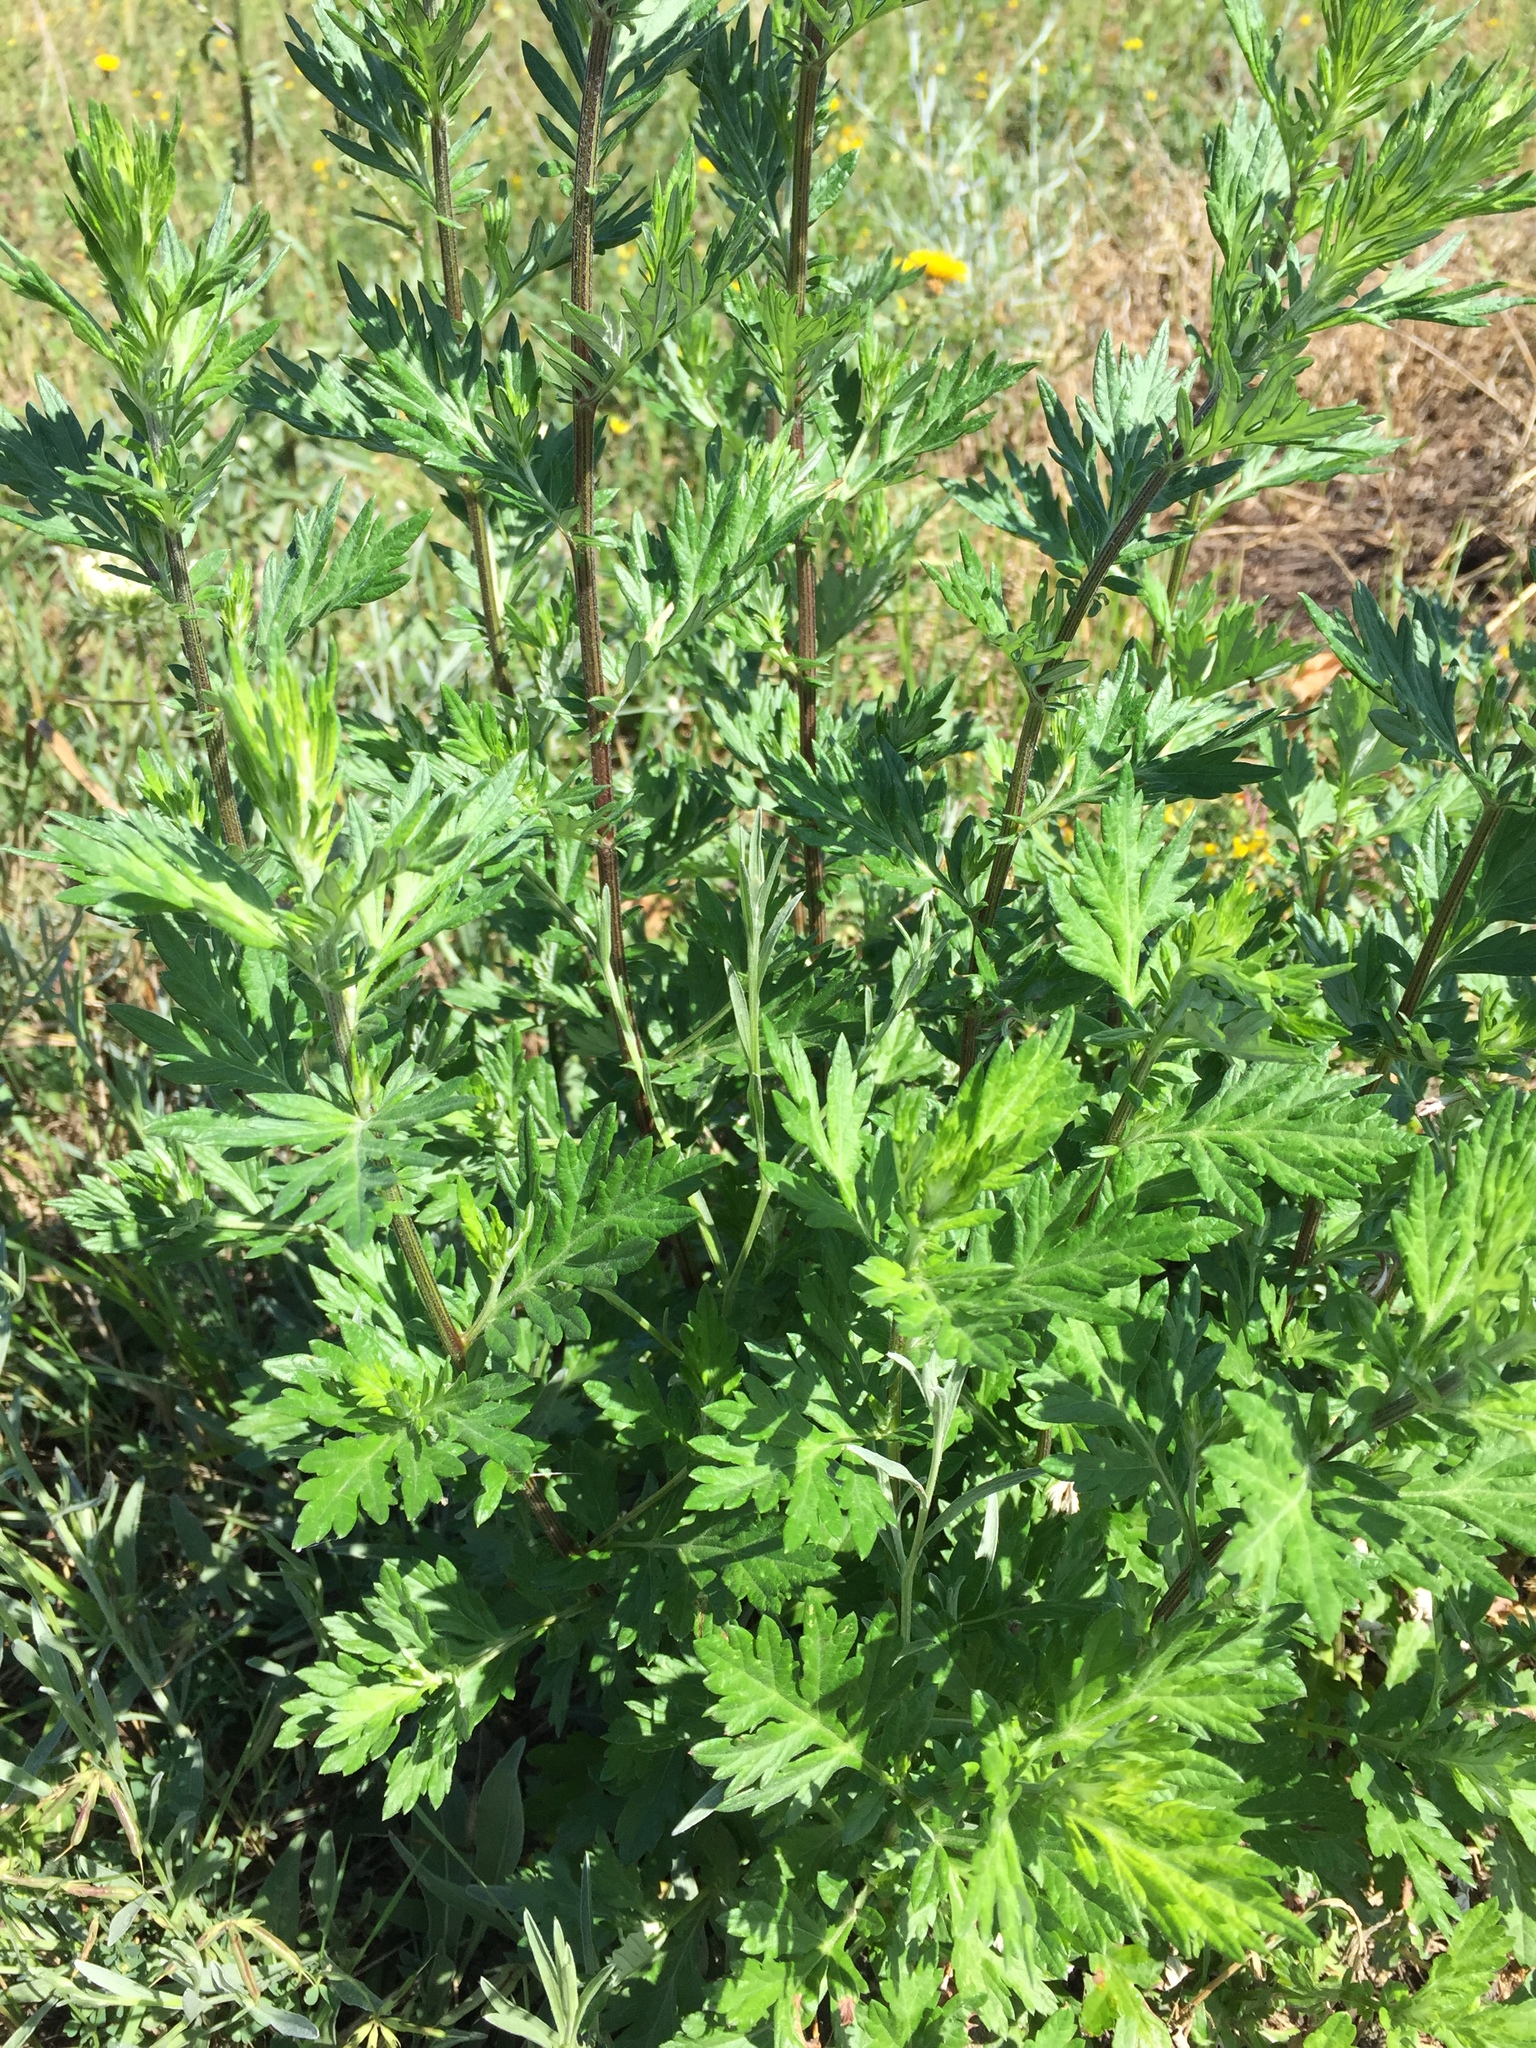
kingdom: Plantae
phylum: Tracheophyta
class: Magnoliopsida
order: Asterales
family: Asteraceae
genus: Artemisia
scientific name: Artemisia vulgaris
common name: Mugwort
